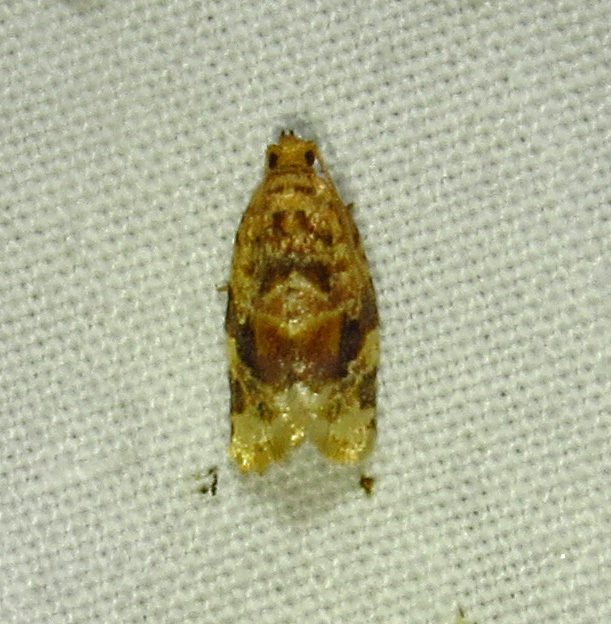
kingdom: Animalia
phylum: Arthropoda
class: Insecta
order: Lepidoptera
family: Tortricidae
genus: Argyrotaenia
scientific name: Argyrotaenia velutinana
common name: Red-banded leafroller moth
